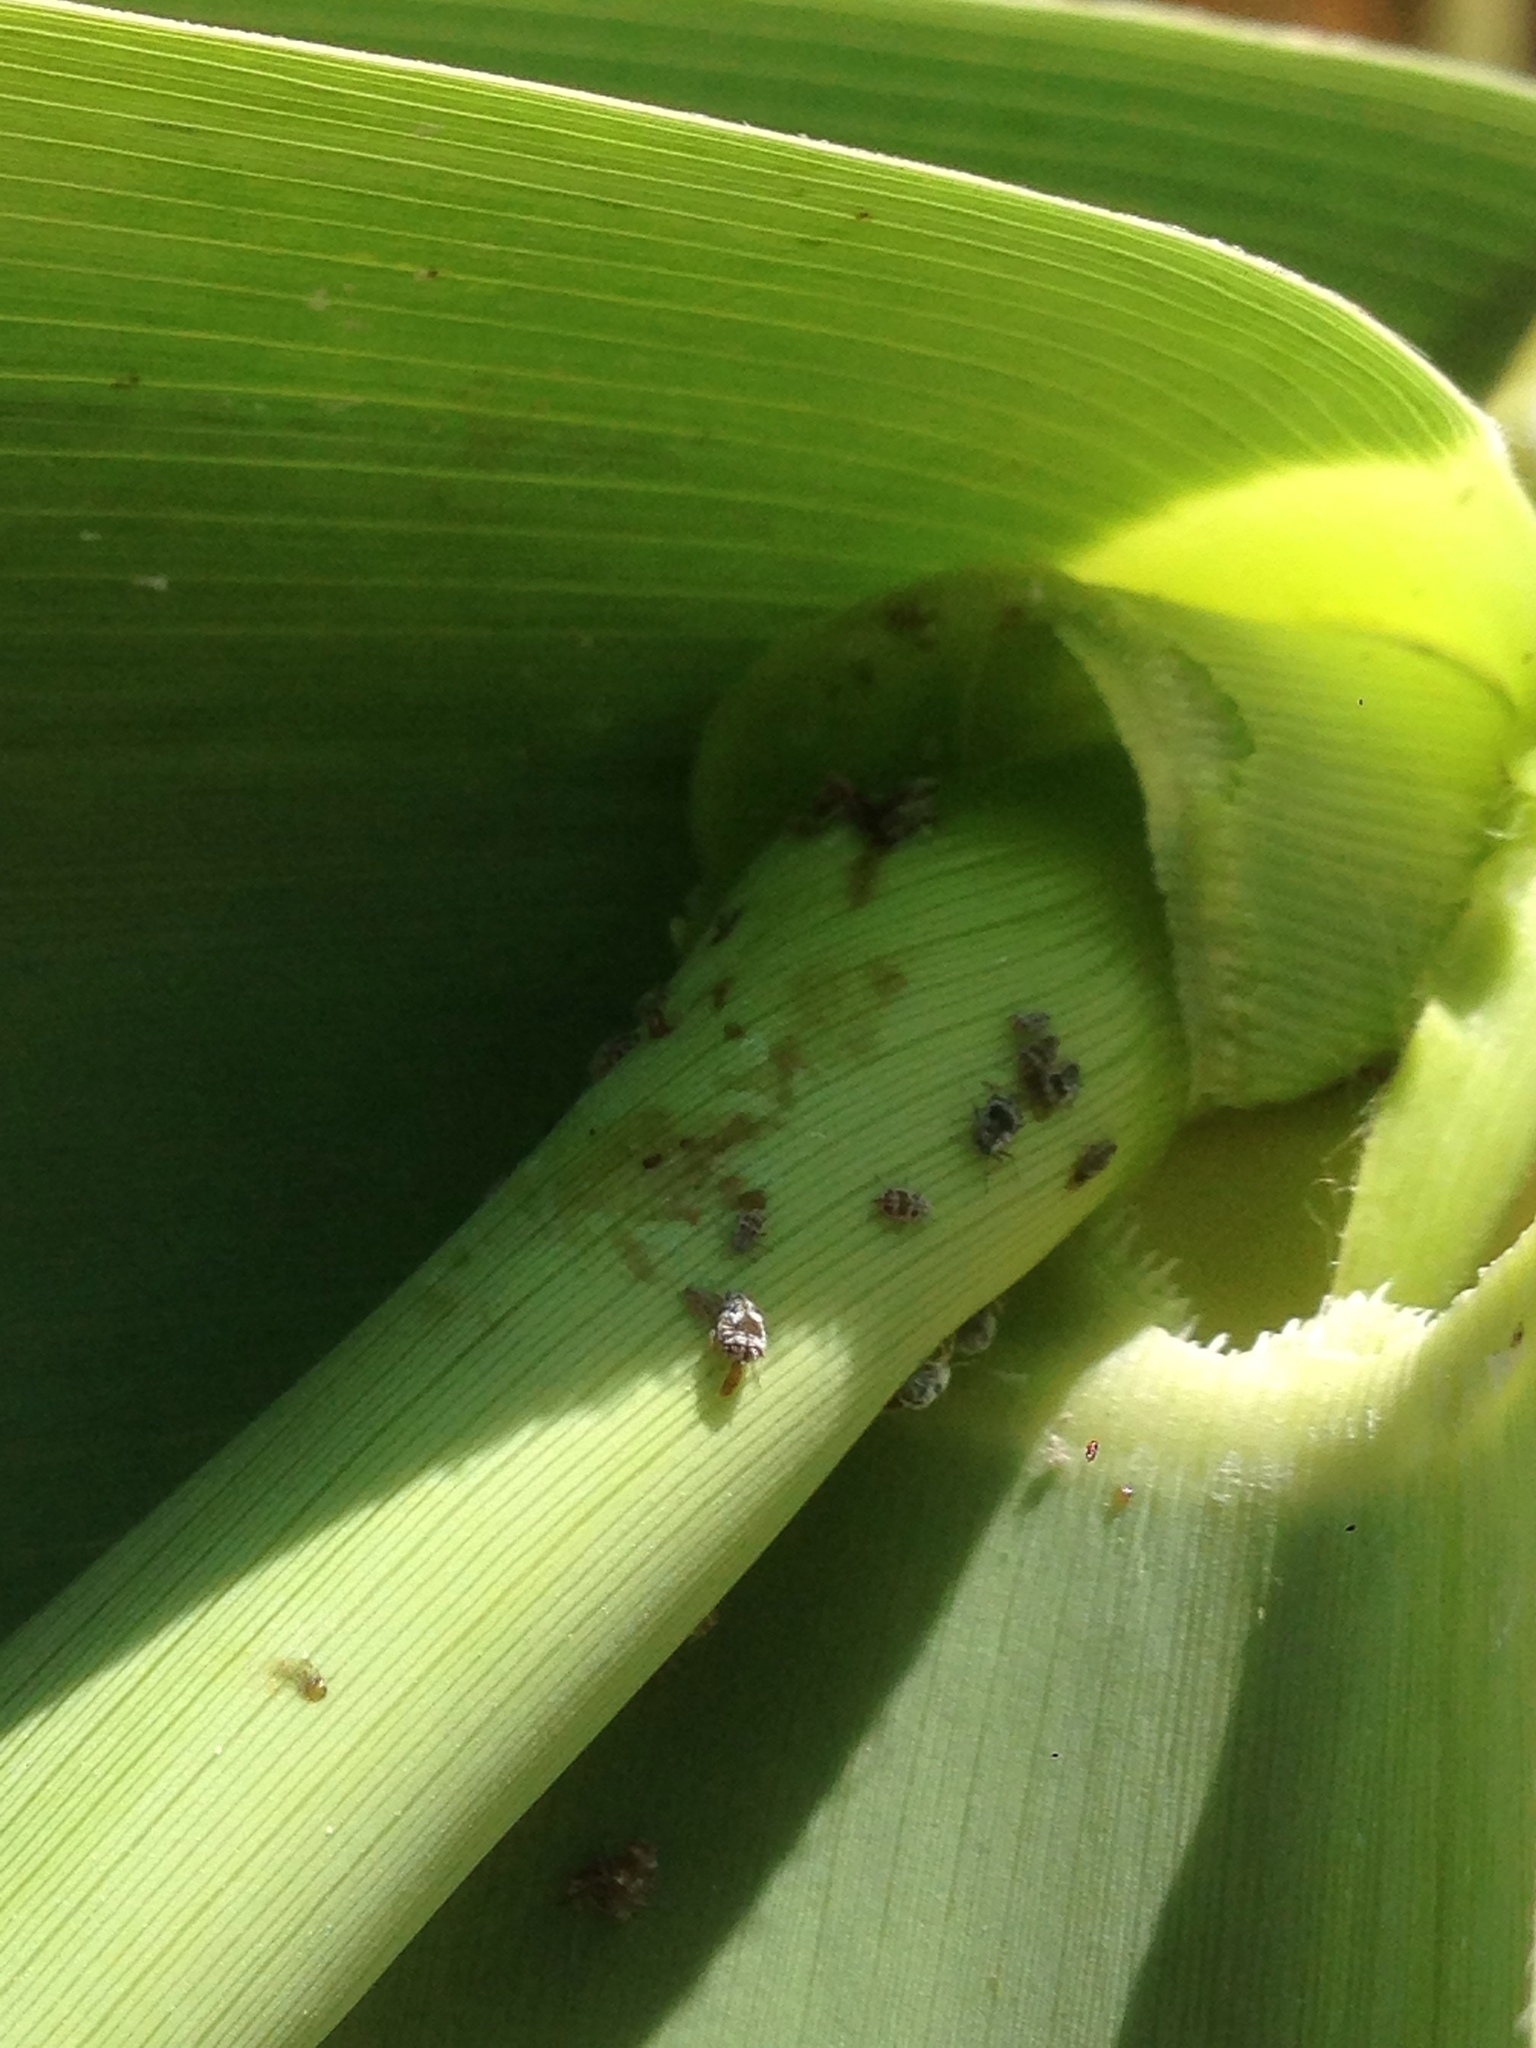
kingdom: Animalia
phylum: Arthropoda
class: Insecta
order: Hemiptera
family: Aphididae
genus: Melanaphis
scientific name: Melanaphis donacis
